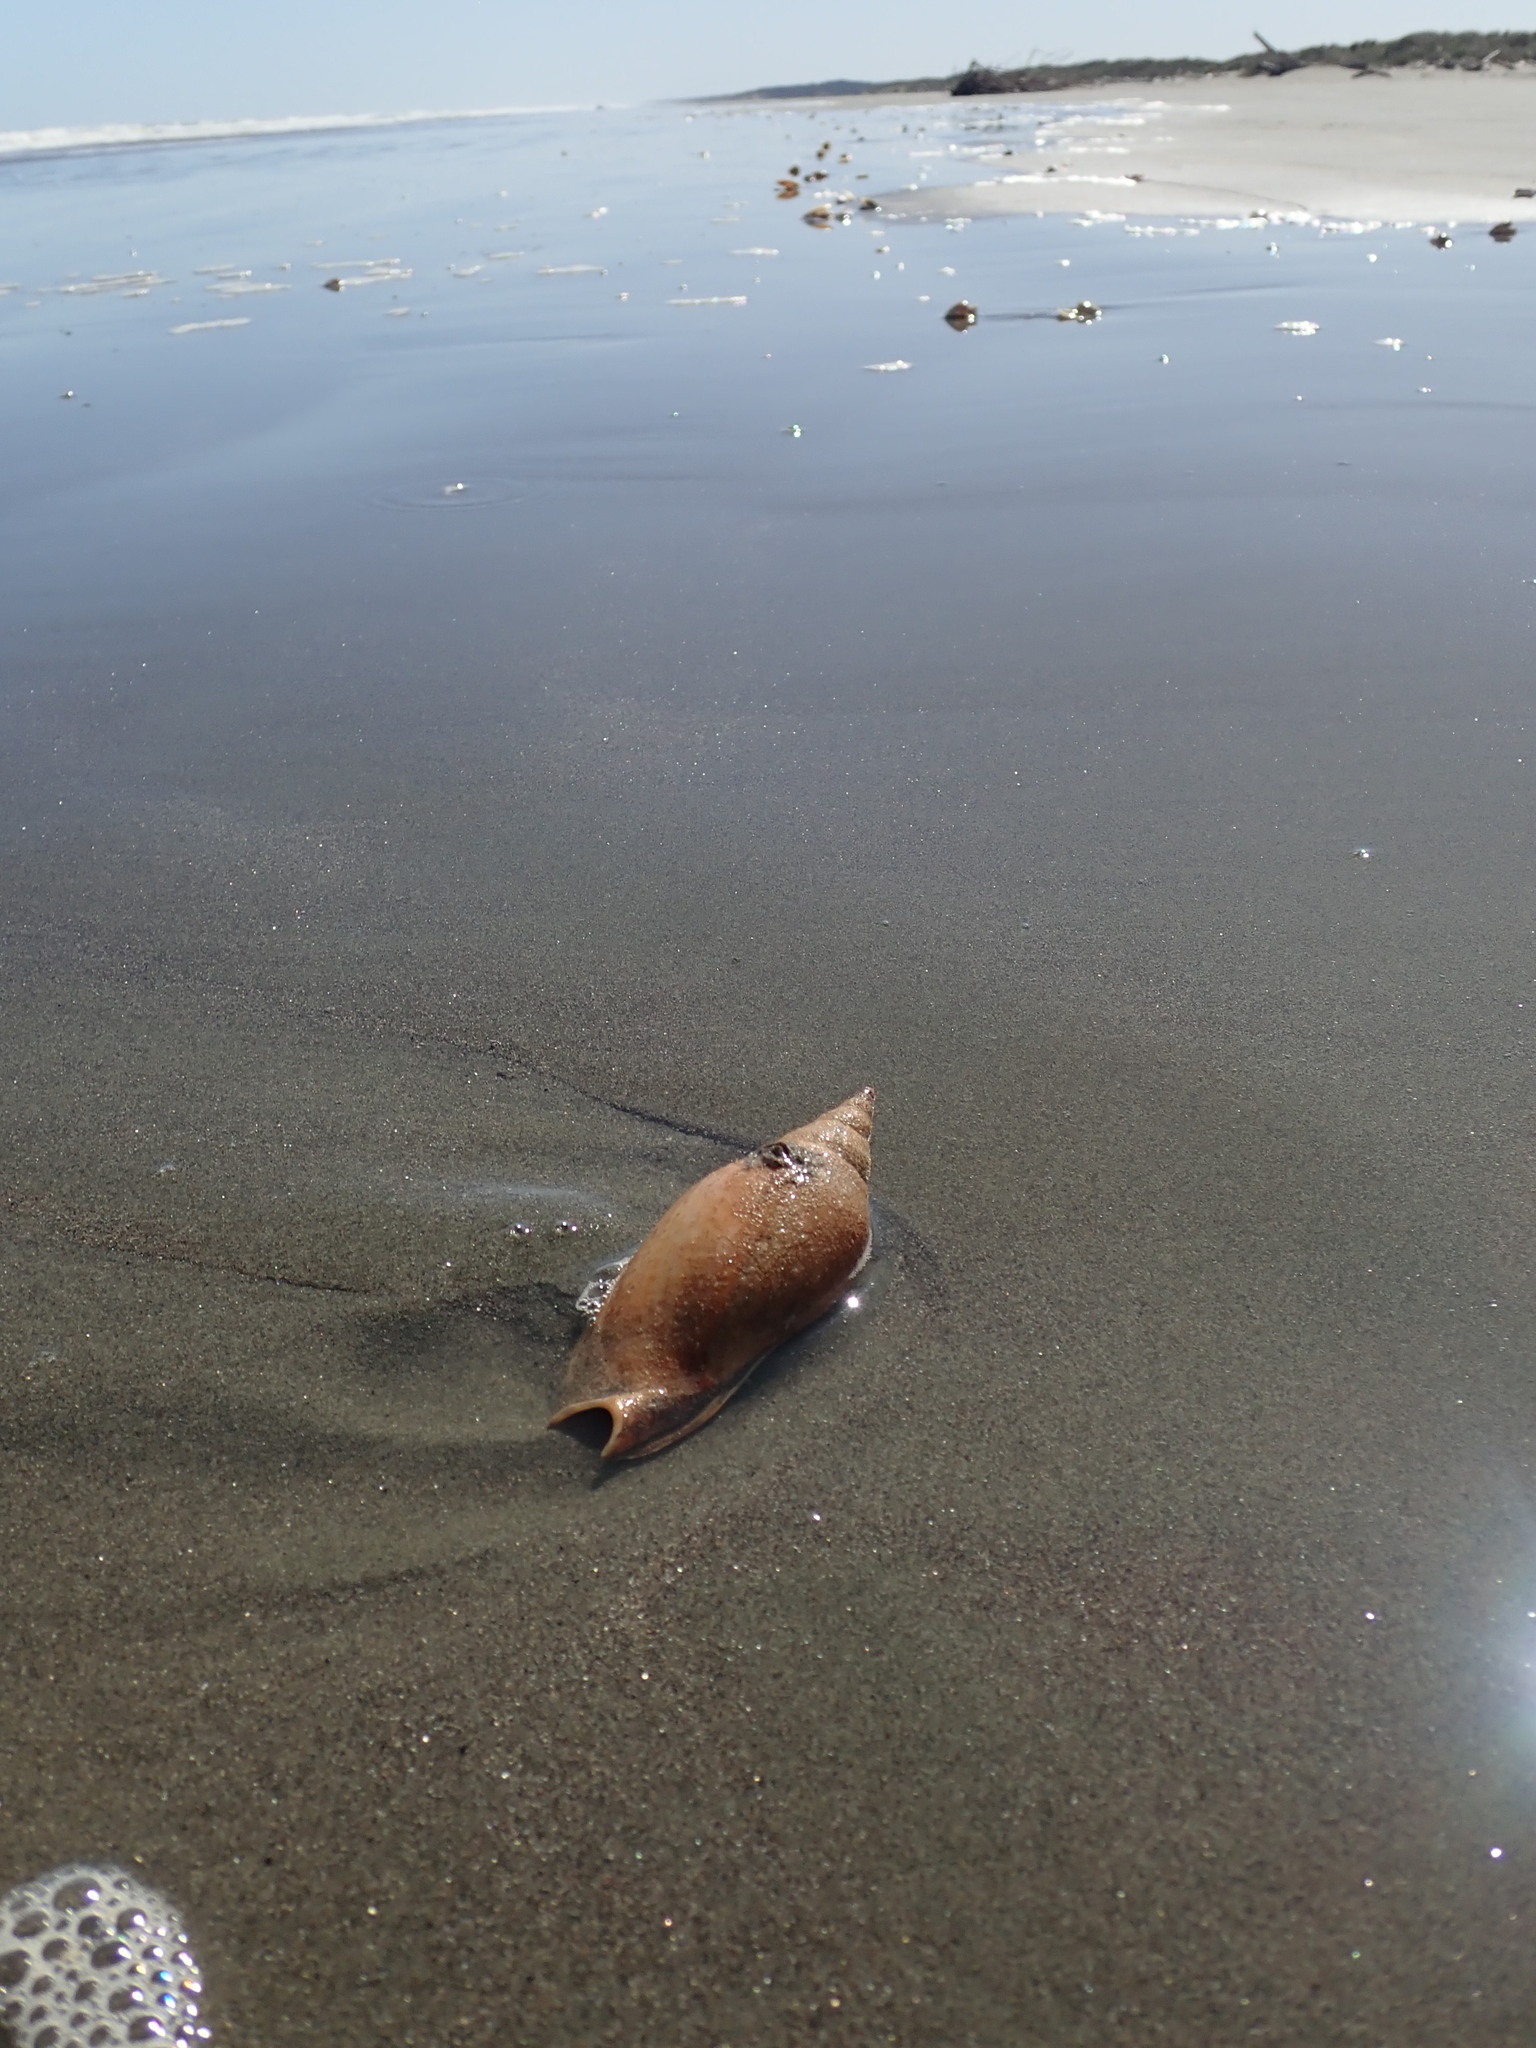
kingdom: Animalia
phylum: Mollusca
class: Gastropoda
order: Neogastropoda
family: Volutidae
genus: Alcithoe
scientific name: Alcithoe arabica
